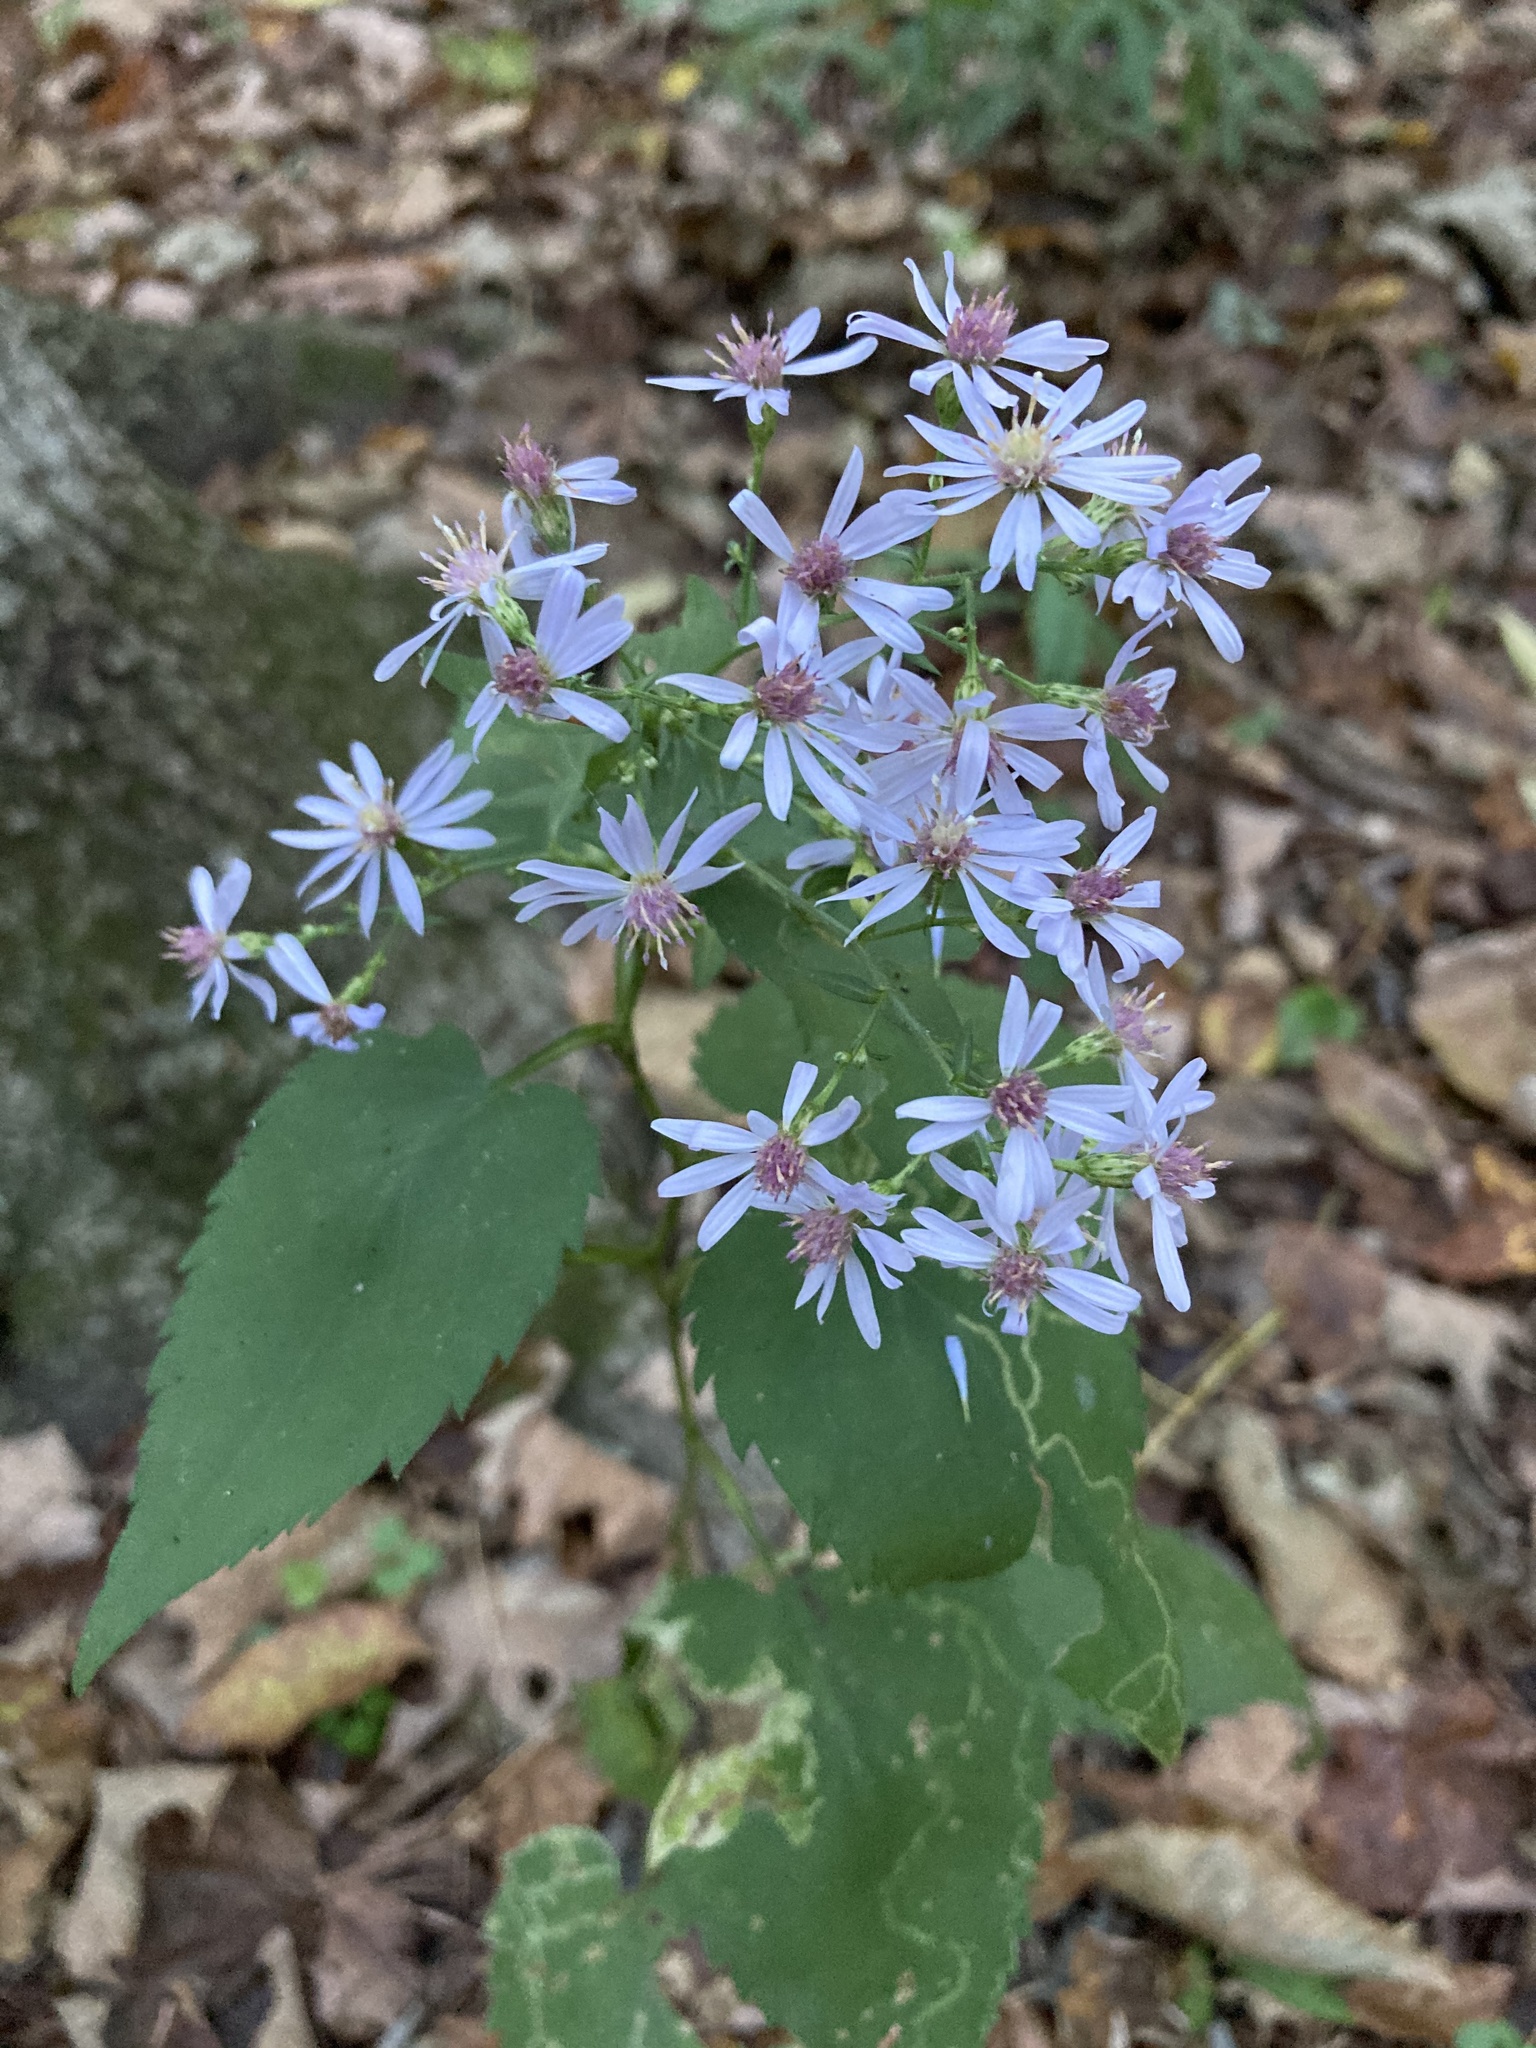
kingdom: Plantae
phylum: Tracheophyta
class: Magnoliopsida
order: Asterales
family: Asteraceae
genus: Symphyotrichum
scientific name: Symphyotrichum cordifolium
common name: Beeweed
